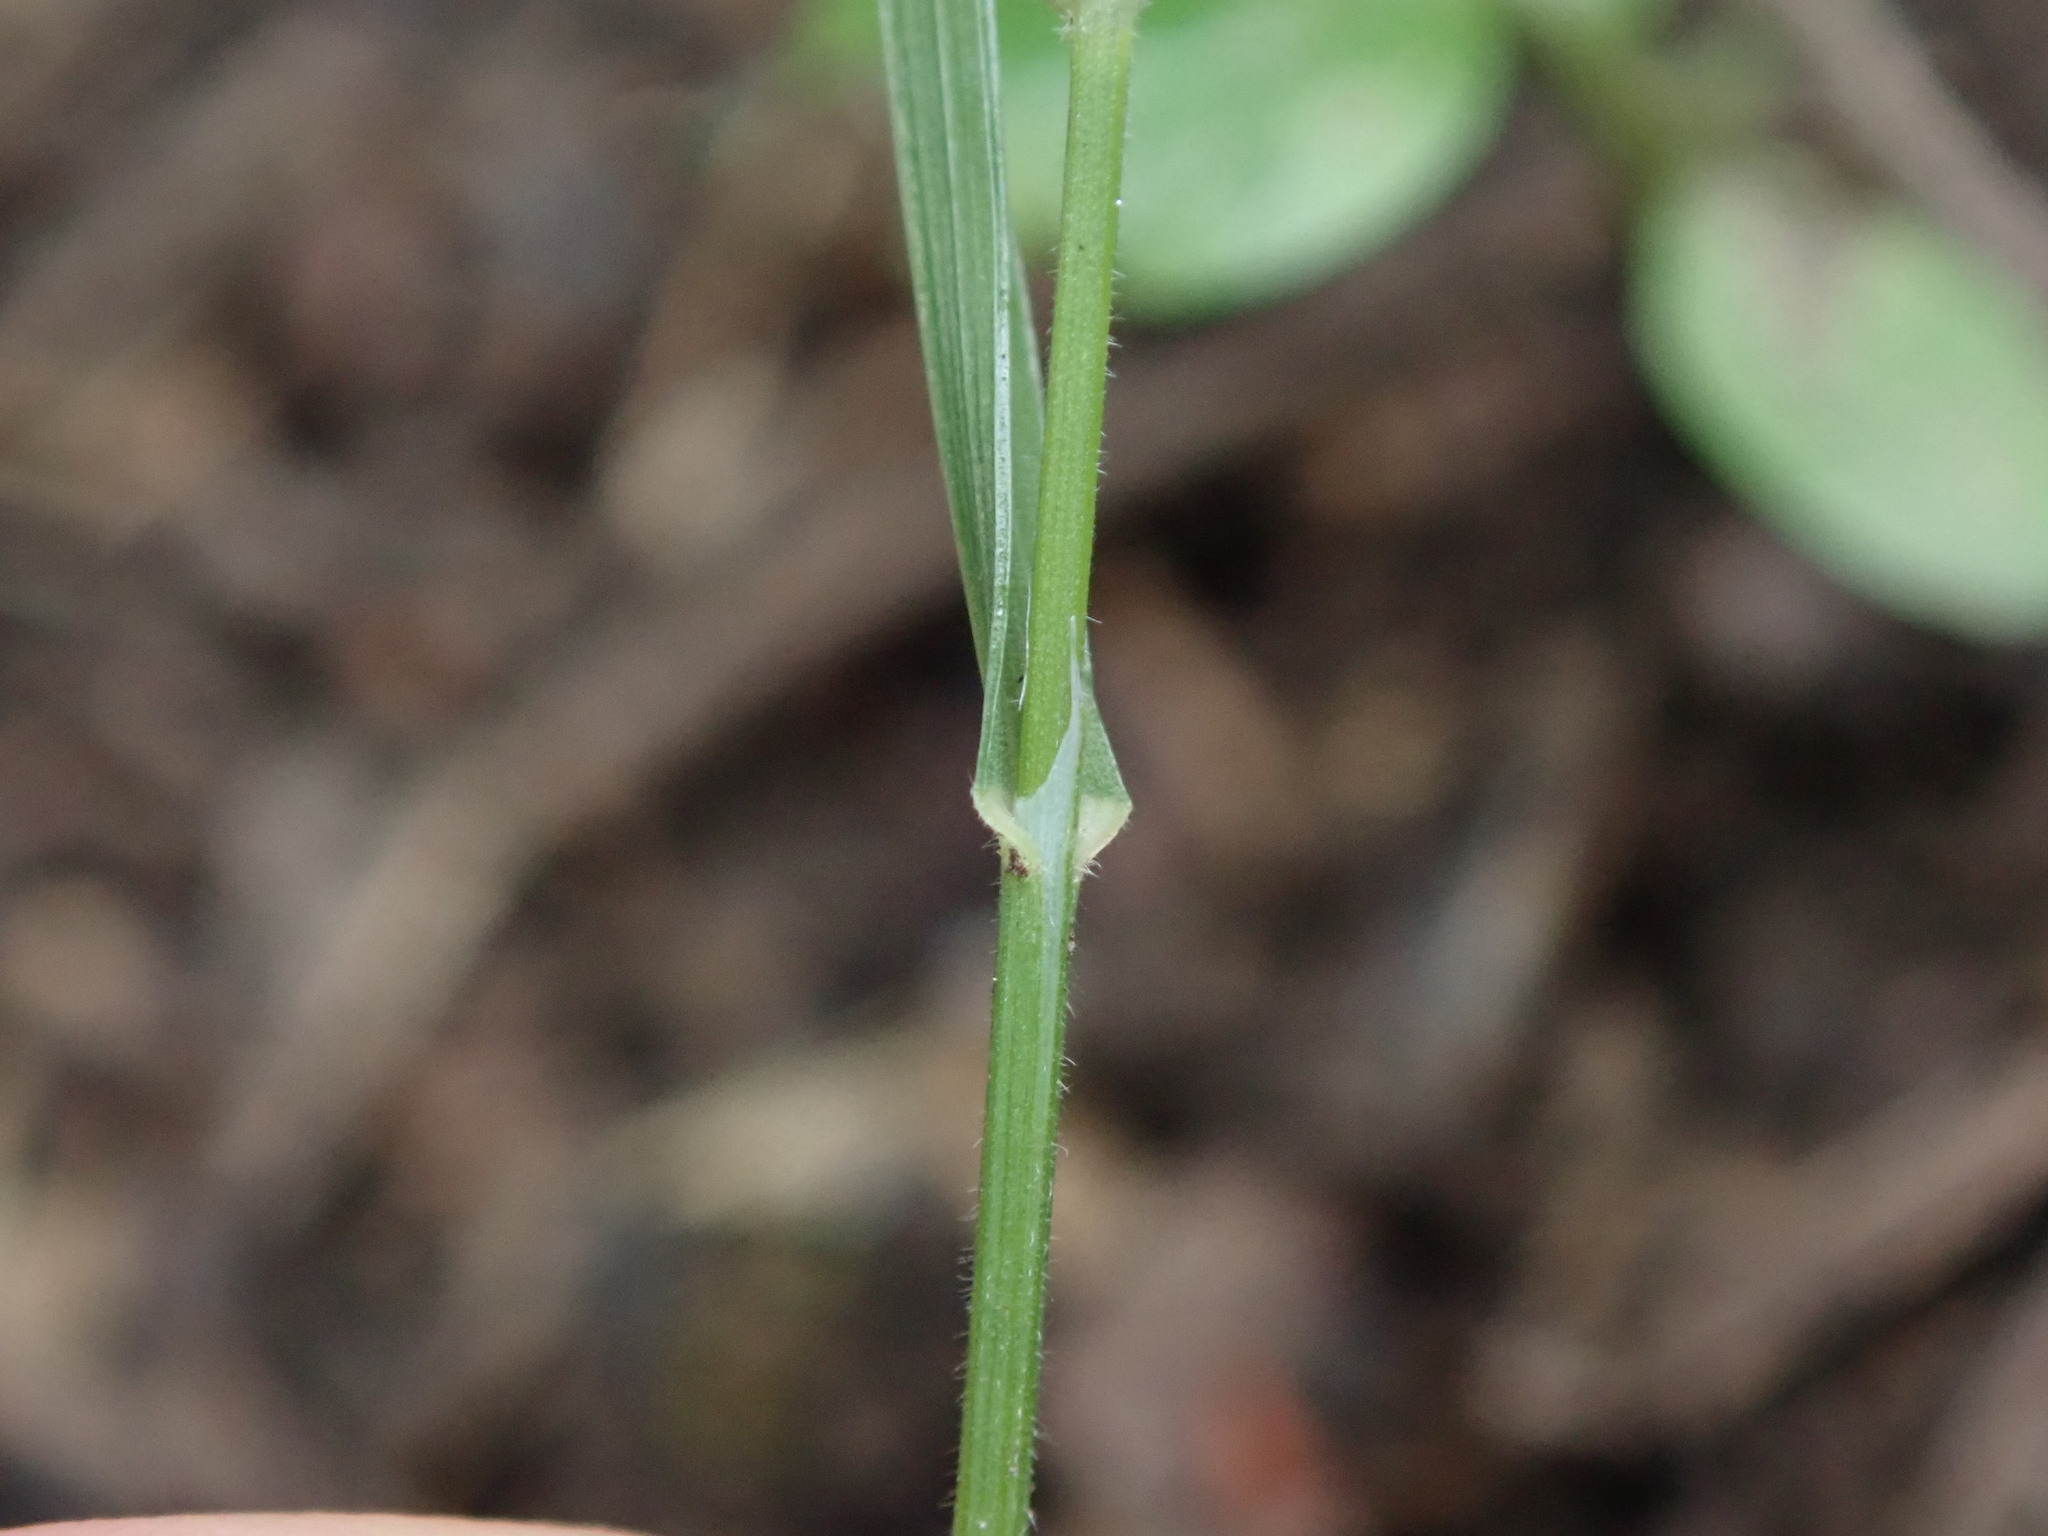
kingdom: Plantae
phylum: Tracheophyta
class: Liliopsida
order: Poales
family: Poaceae
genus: Melica
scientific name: Melica uniflora
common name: Wood melick
